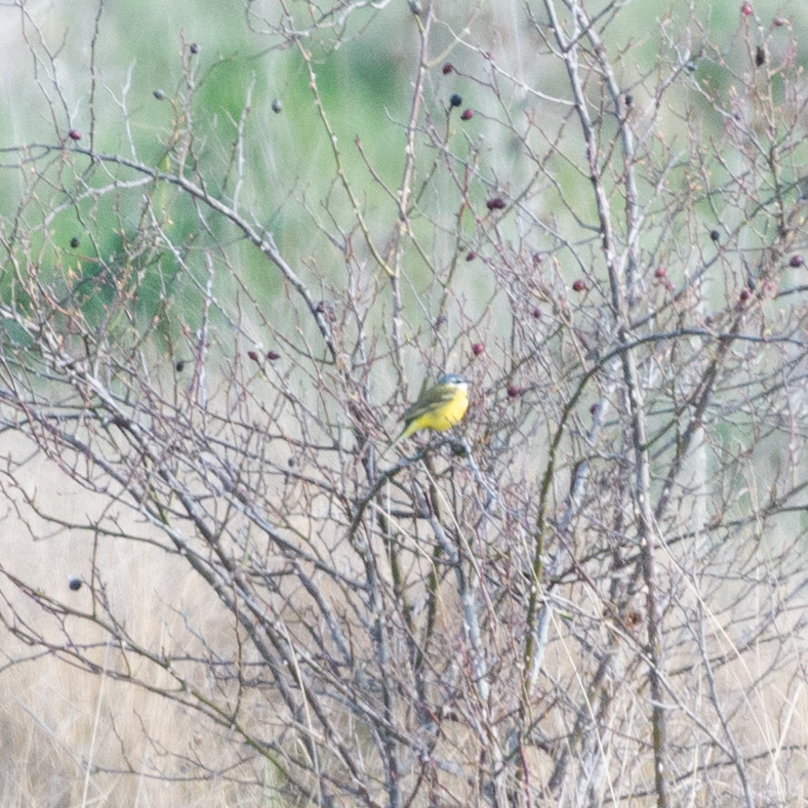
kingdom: Animalia
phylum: Chordata
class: Aves
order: Passeriformes
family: Motacillidae
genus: Motacilla
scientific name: Motacilla flava
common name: Western yellow wagtail
